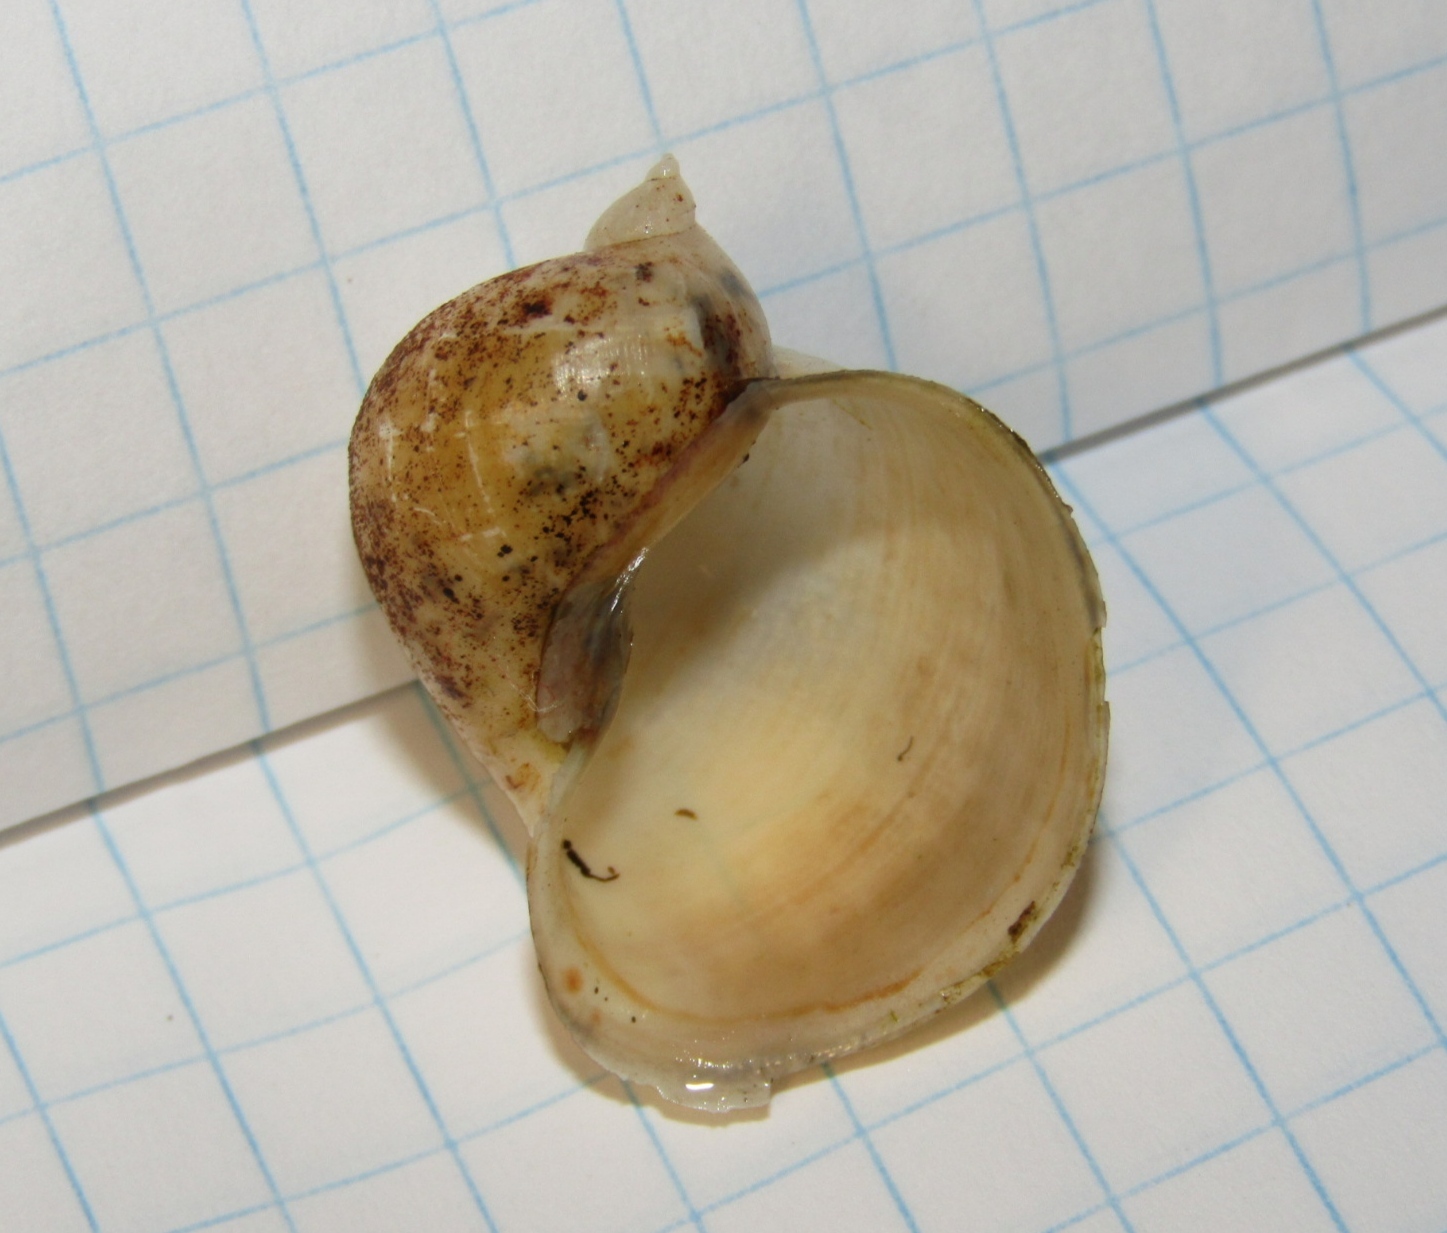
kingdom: Animalia
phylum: Mollusca
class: Gastropoda
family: Lymnaeidae
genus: Radix
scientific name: Radix auricularia
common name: Ear pond snail
